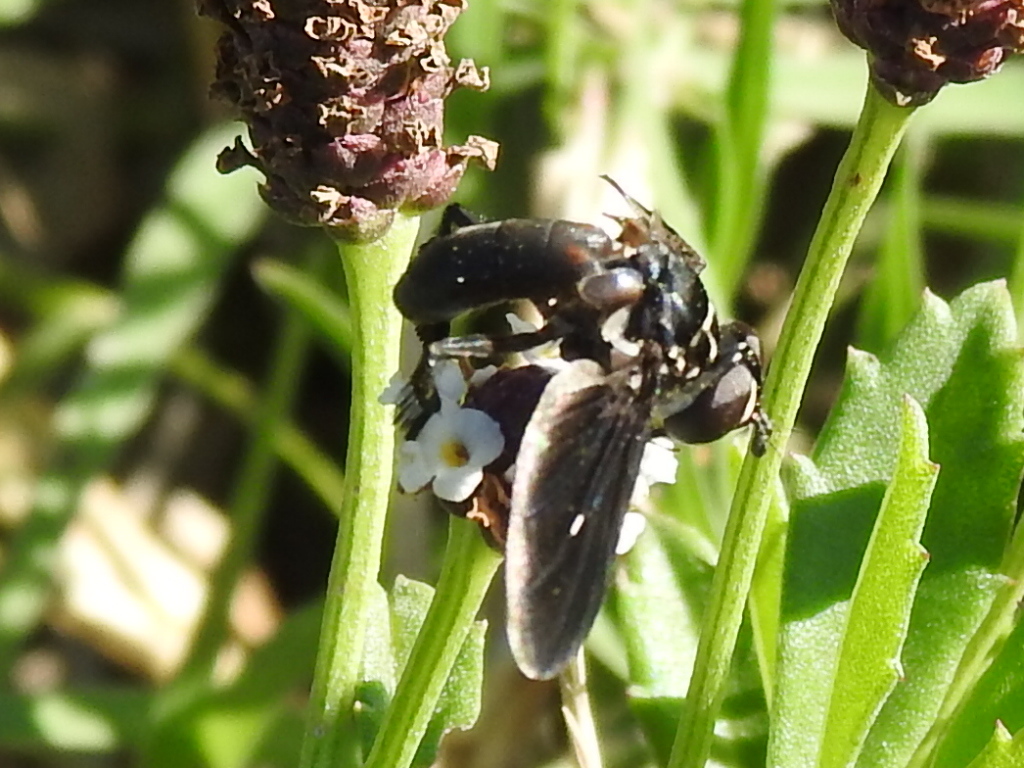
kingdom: Animalia
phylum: Arthropoda
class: Insecta
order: Diptera
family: Tachinidae
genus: Trichopoda
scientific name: Trichopoda lanipes
